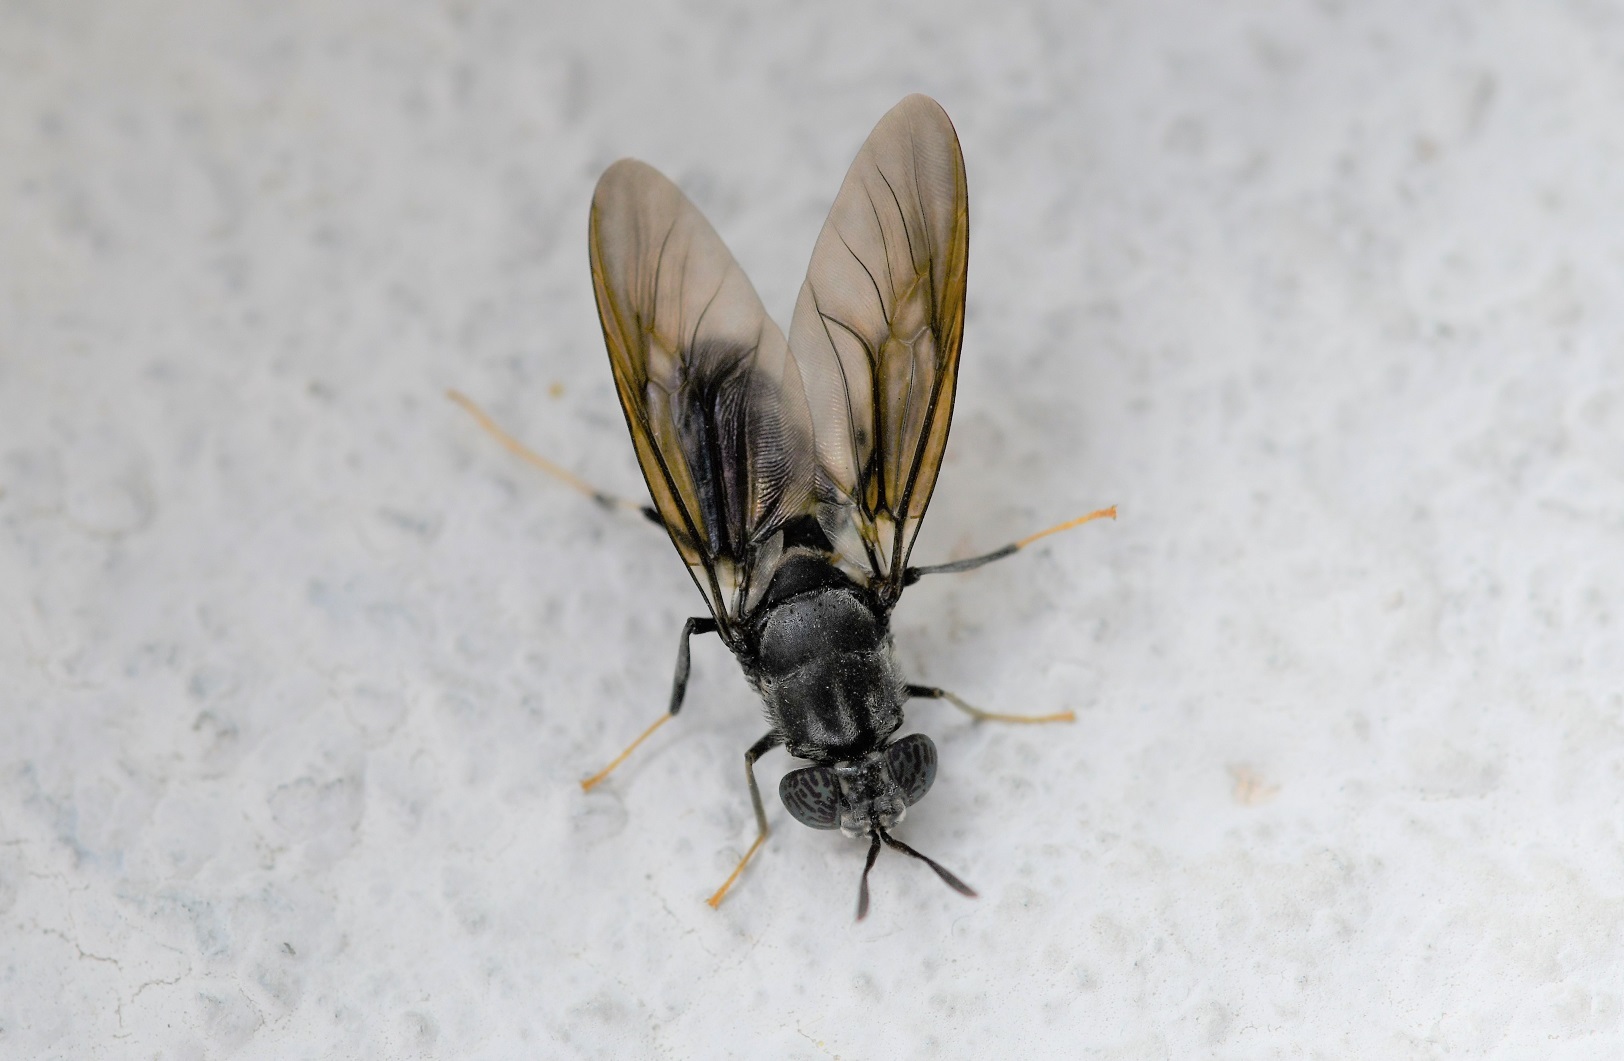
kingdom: Animalia
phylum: Arthropoda
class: Insecta
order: Diptera
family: Stratiomyidae
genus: Hermetia
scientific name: Hermetia illucens
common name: Black soldier fly
